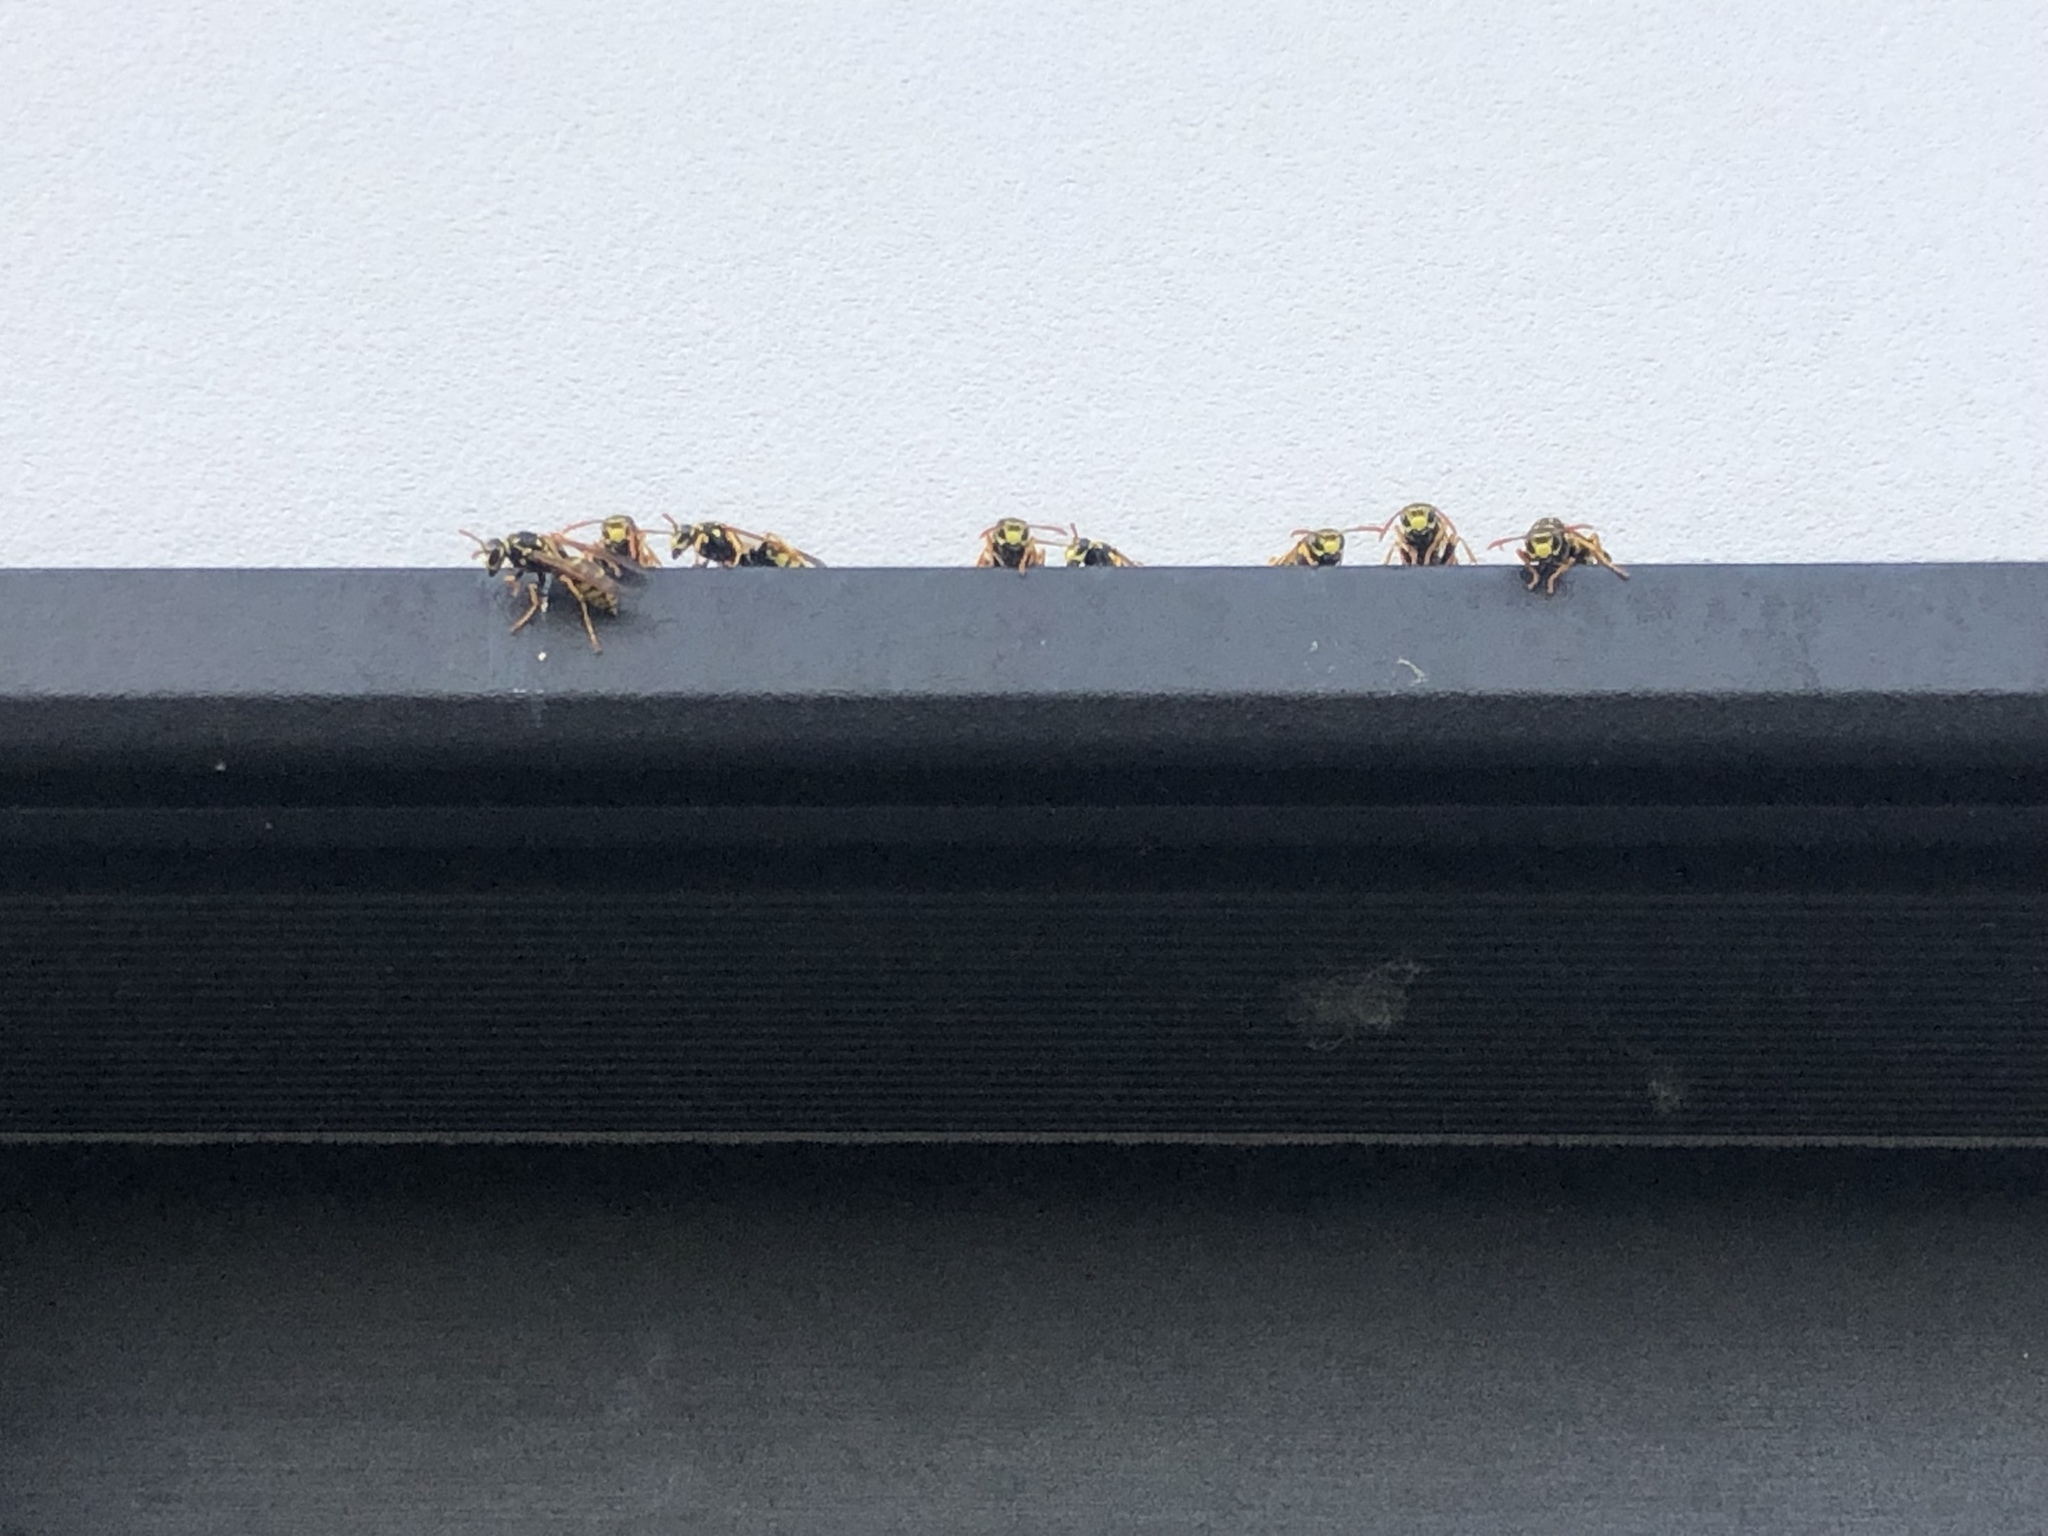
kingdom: Animalia
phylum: Arthropoda
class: Insecta
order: Hymenoptera
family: Eumenidae
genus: Polistes
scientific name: Polistes dominula
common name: Paper wasp
